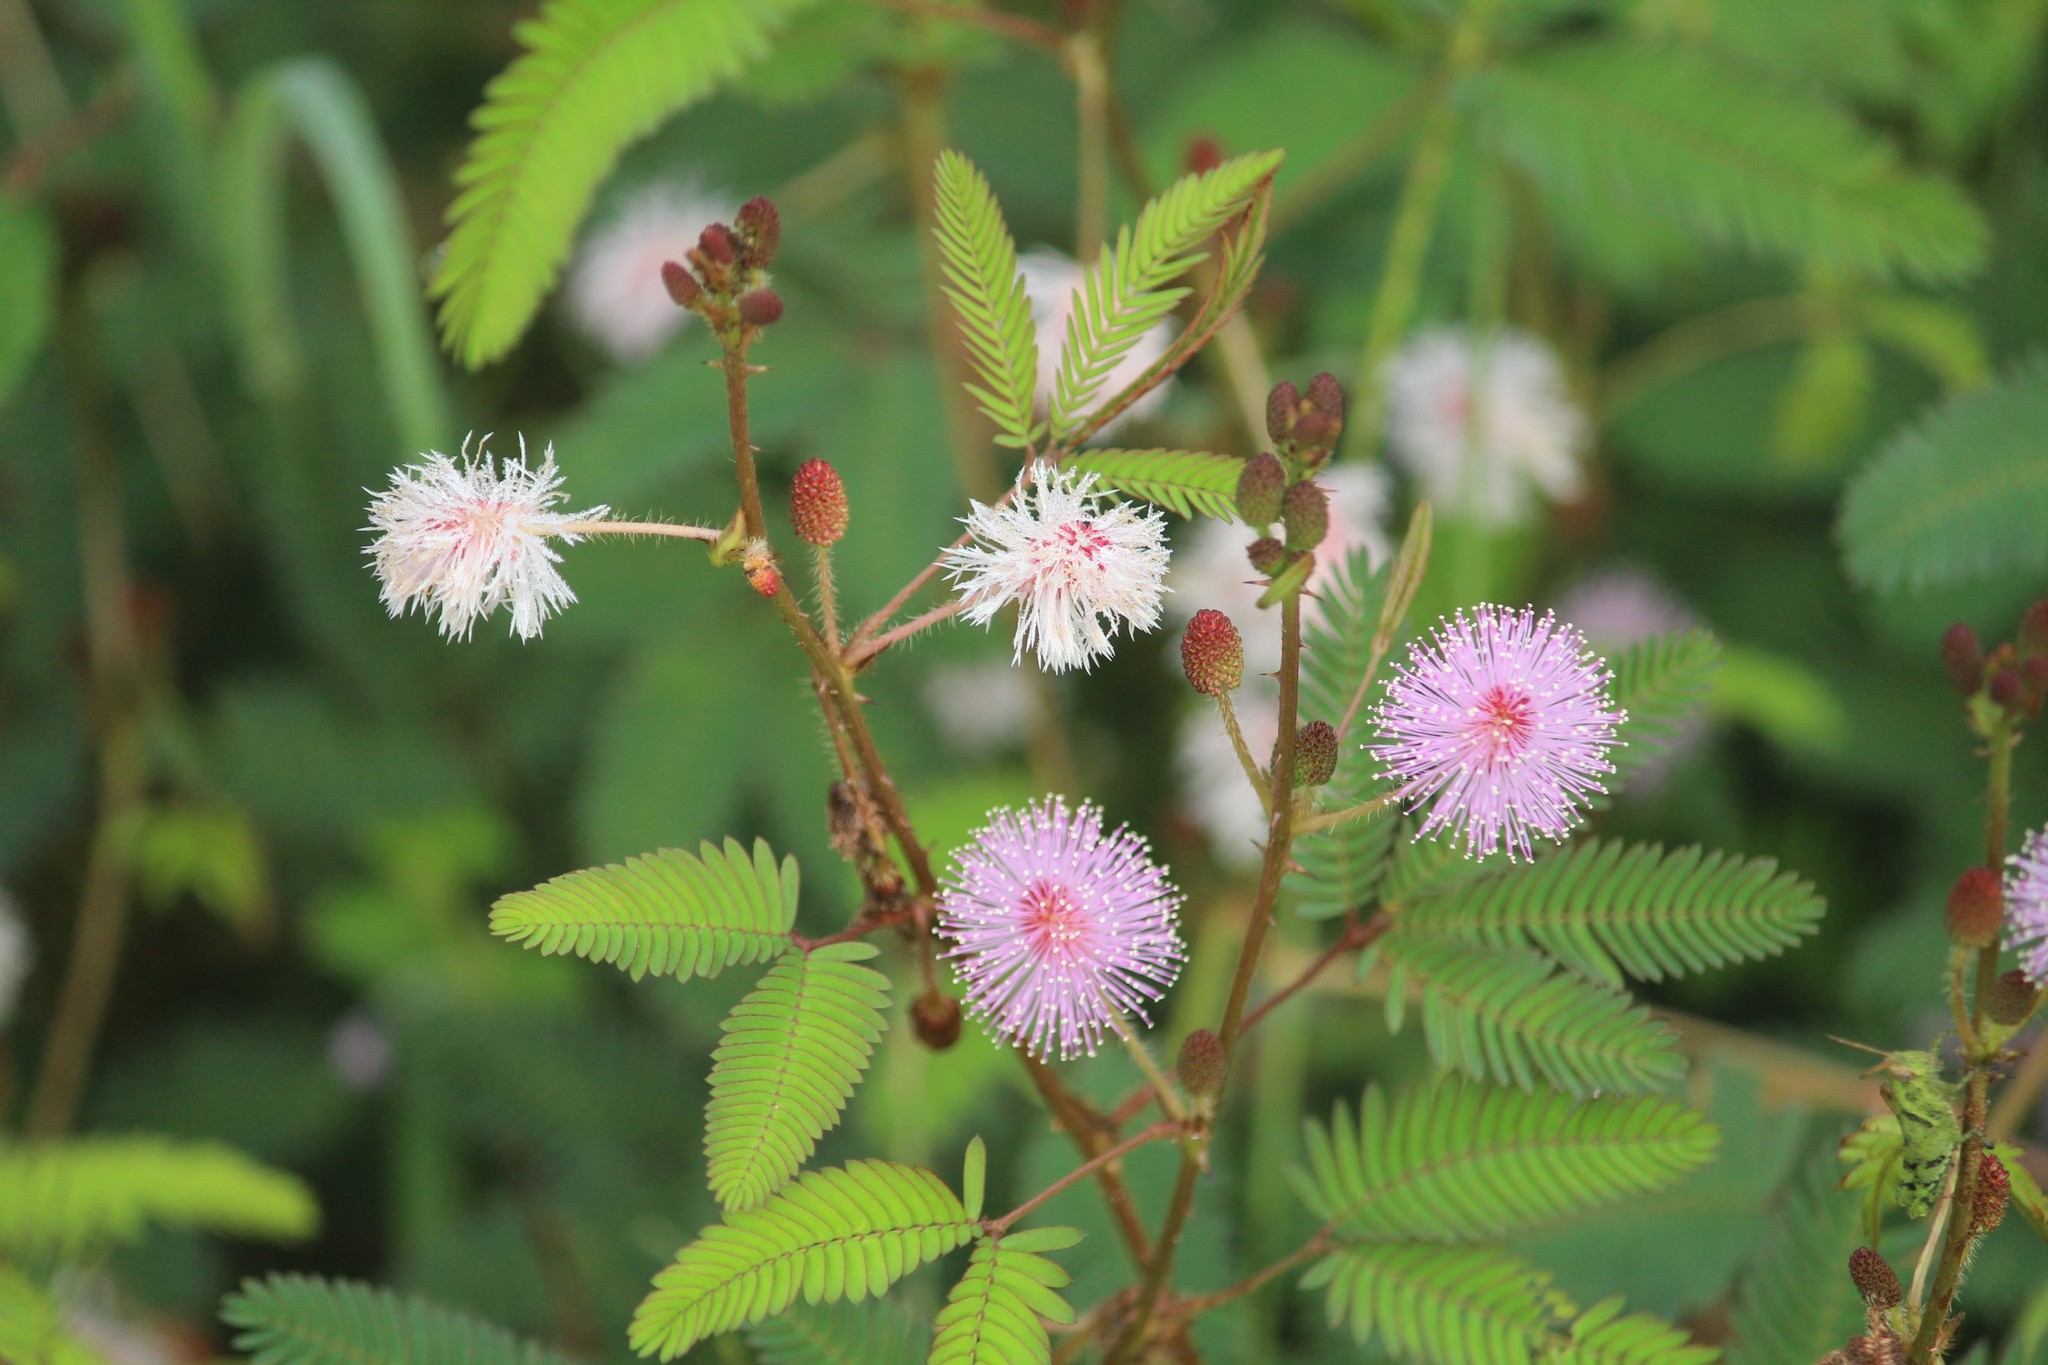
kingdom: Plantae
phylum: Tracheophyta
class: Magnoliopsida
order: Fabales
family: Fabaceae
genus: Mimosa
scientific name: Mimosa pudica
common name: Sensitive plant
